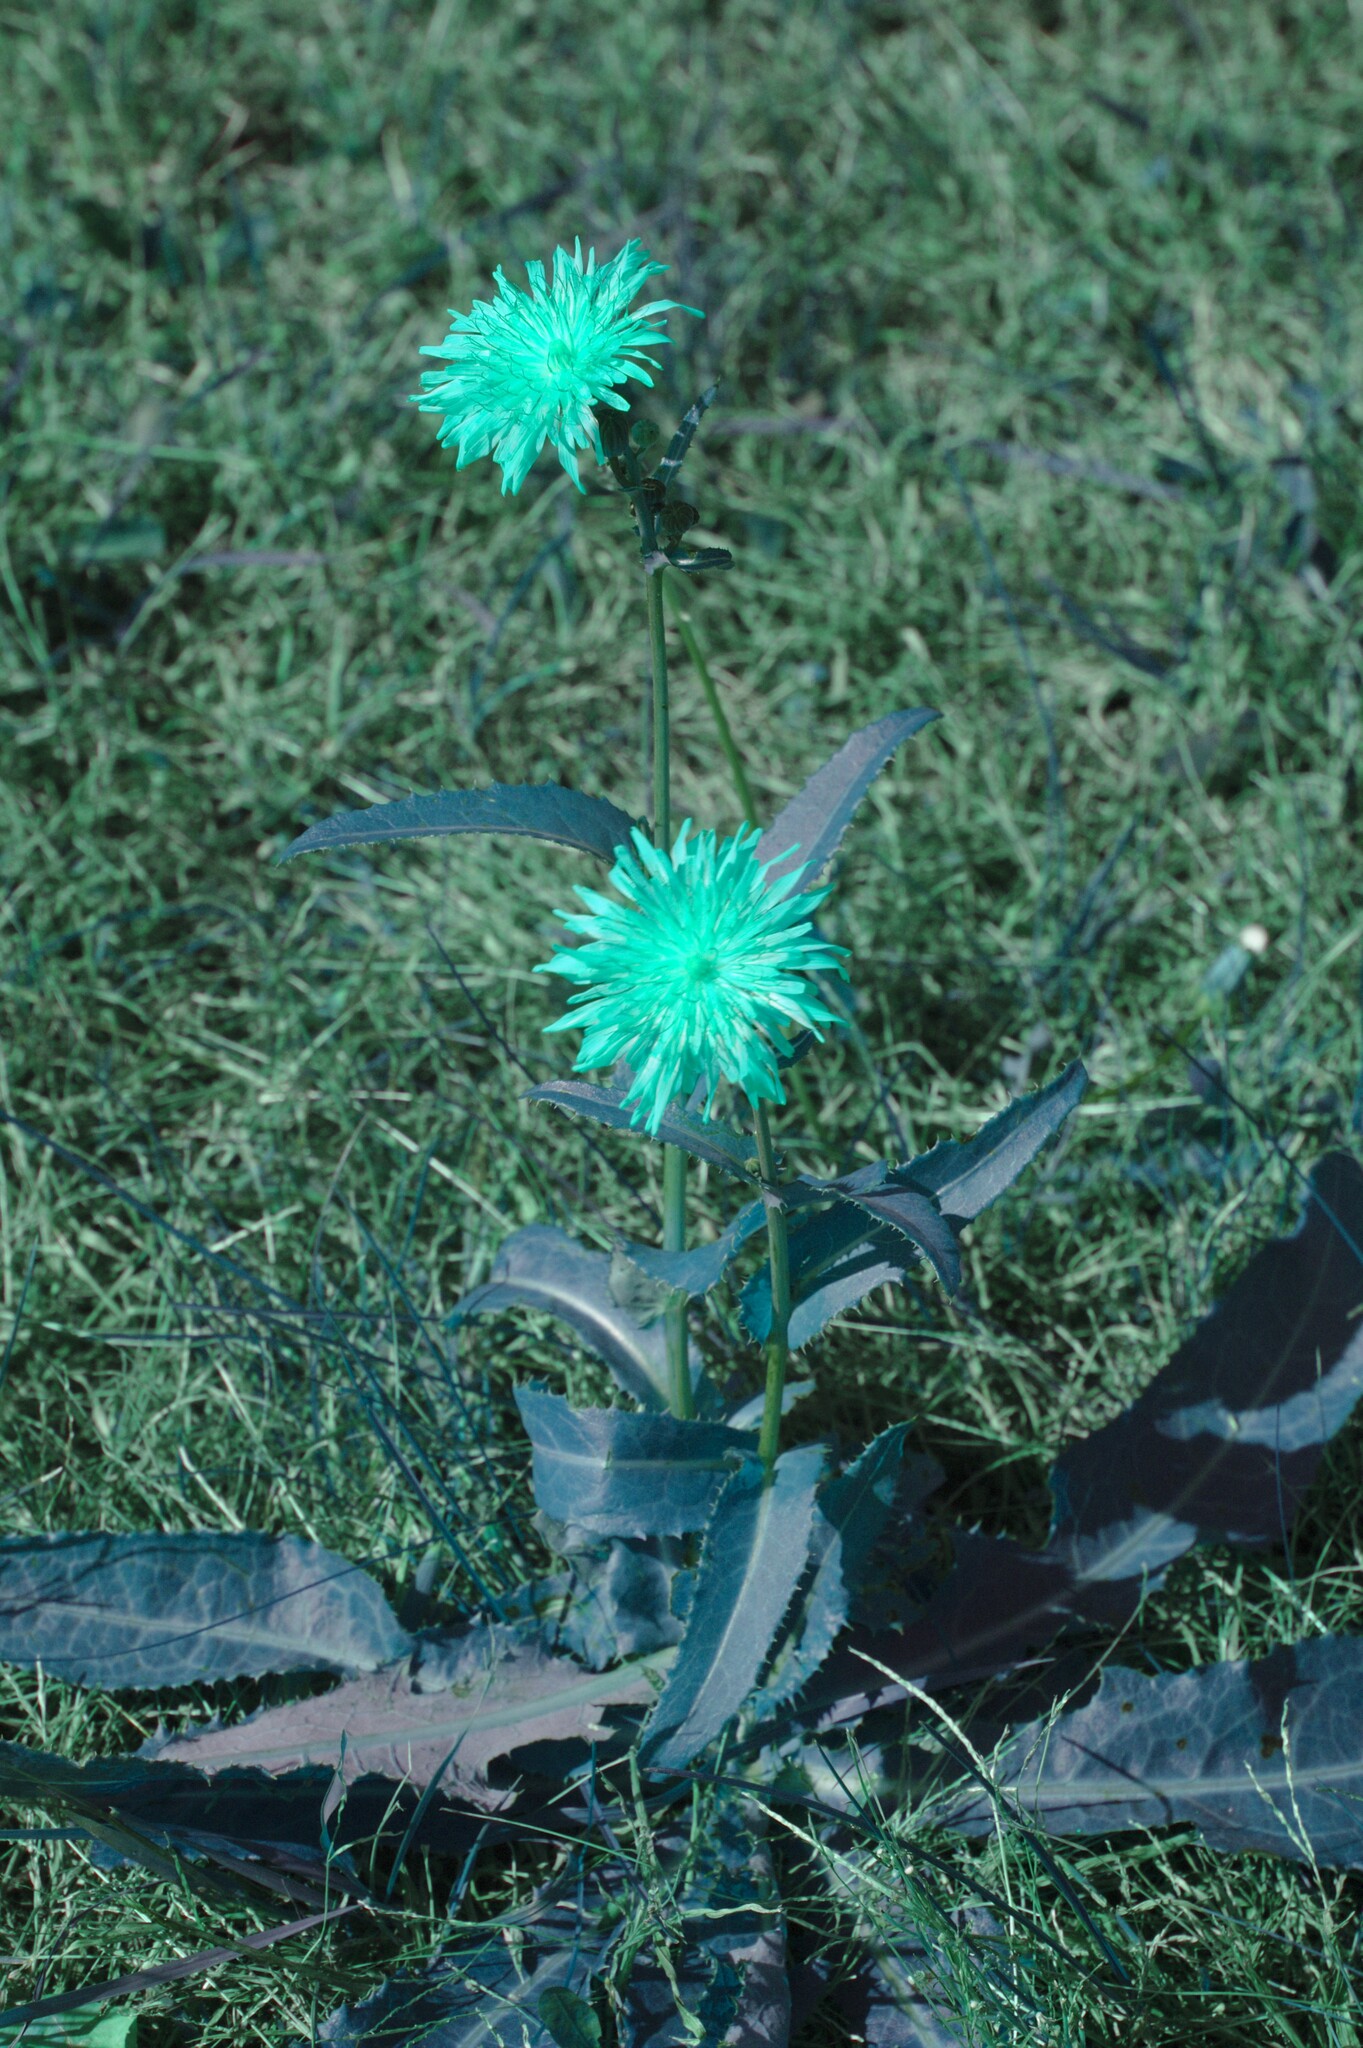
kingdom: Plantae
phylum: Tracheophyta
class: Magnoliopsida
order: Asterales
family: Asteraceae
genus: Sonchus
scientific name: Sonchus arvensis
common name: Perennial sow-thistle
